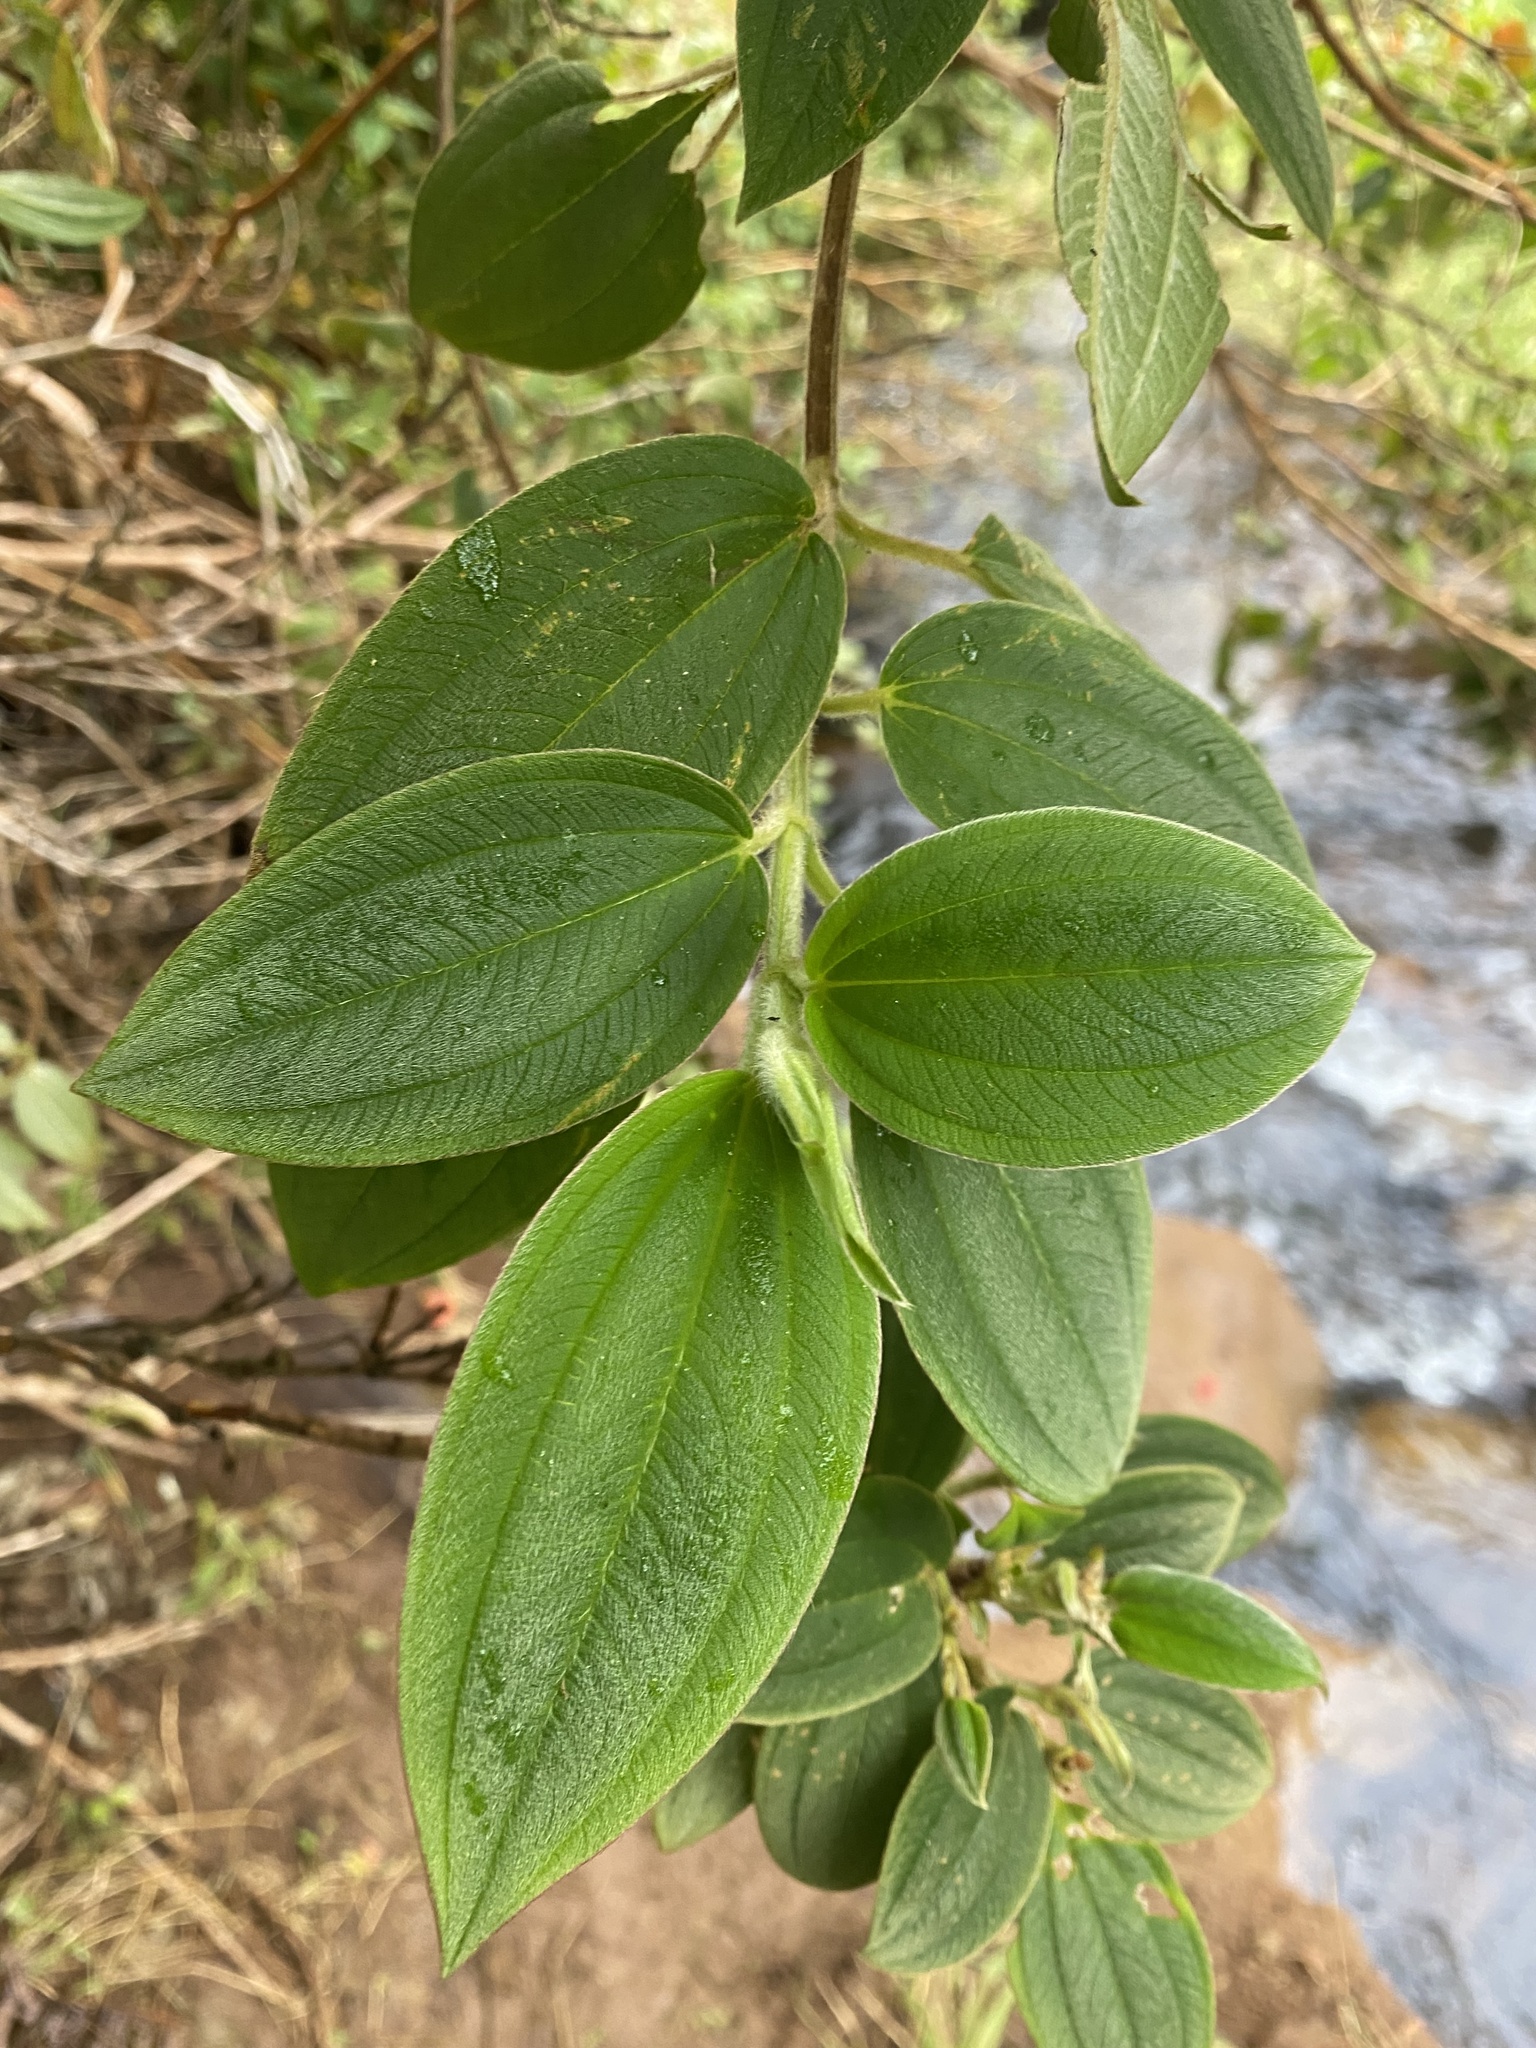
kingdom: Plantae
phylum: Tracheophyta
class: Magnoliopsida
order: Myrtales
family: Melastomataceae
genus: Pleroma
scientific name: Pleroma urvilleanum
